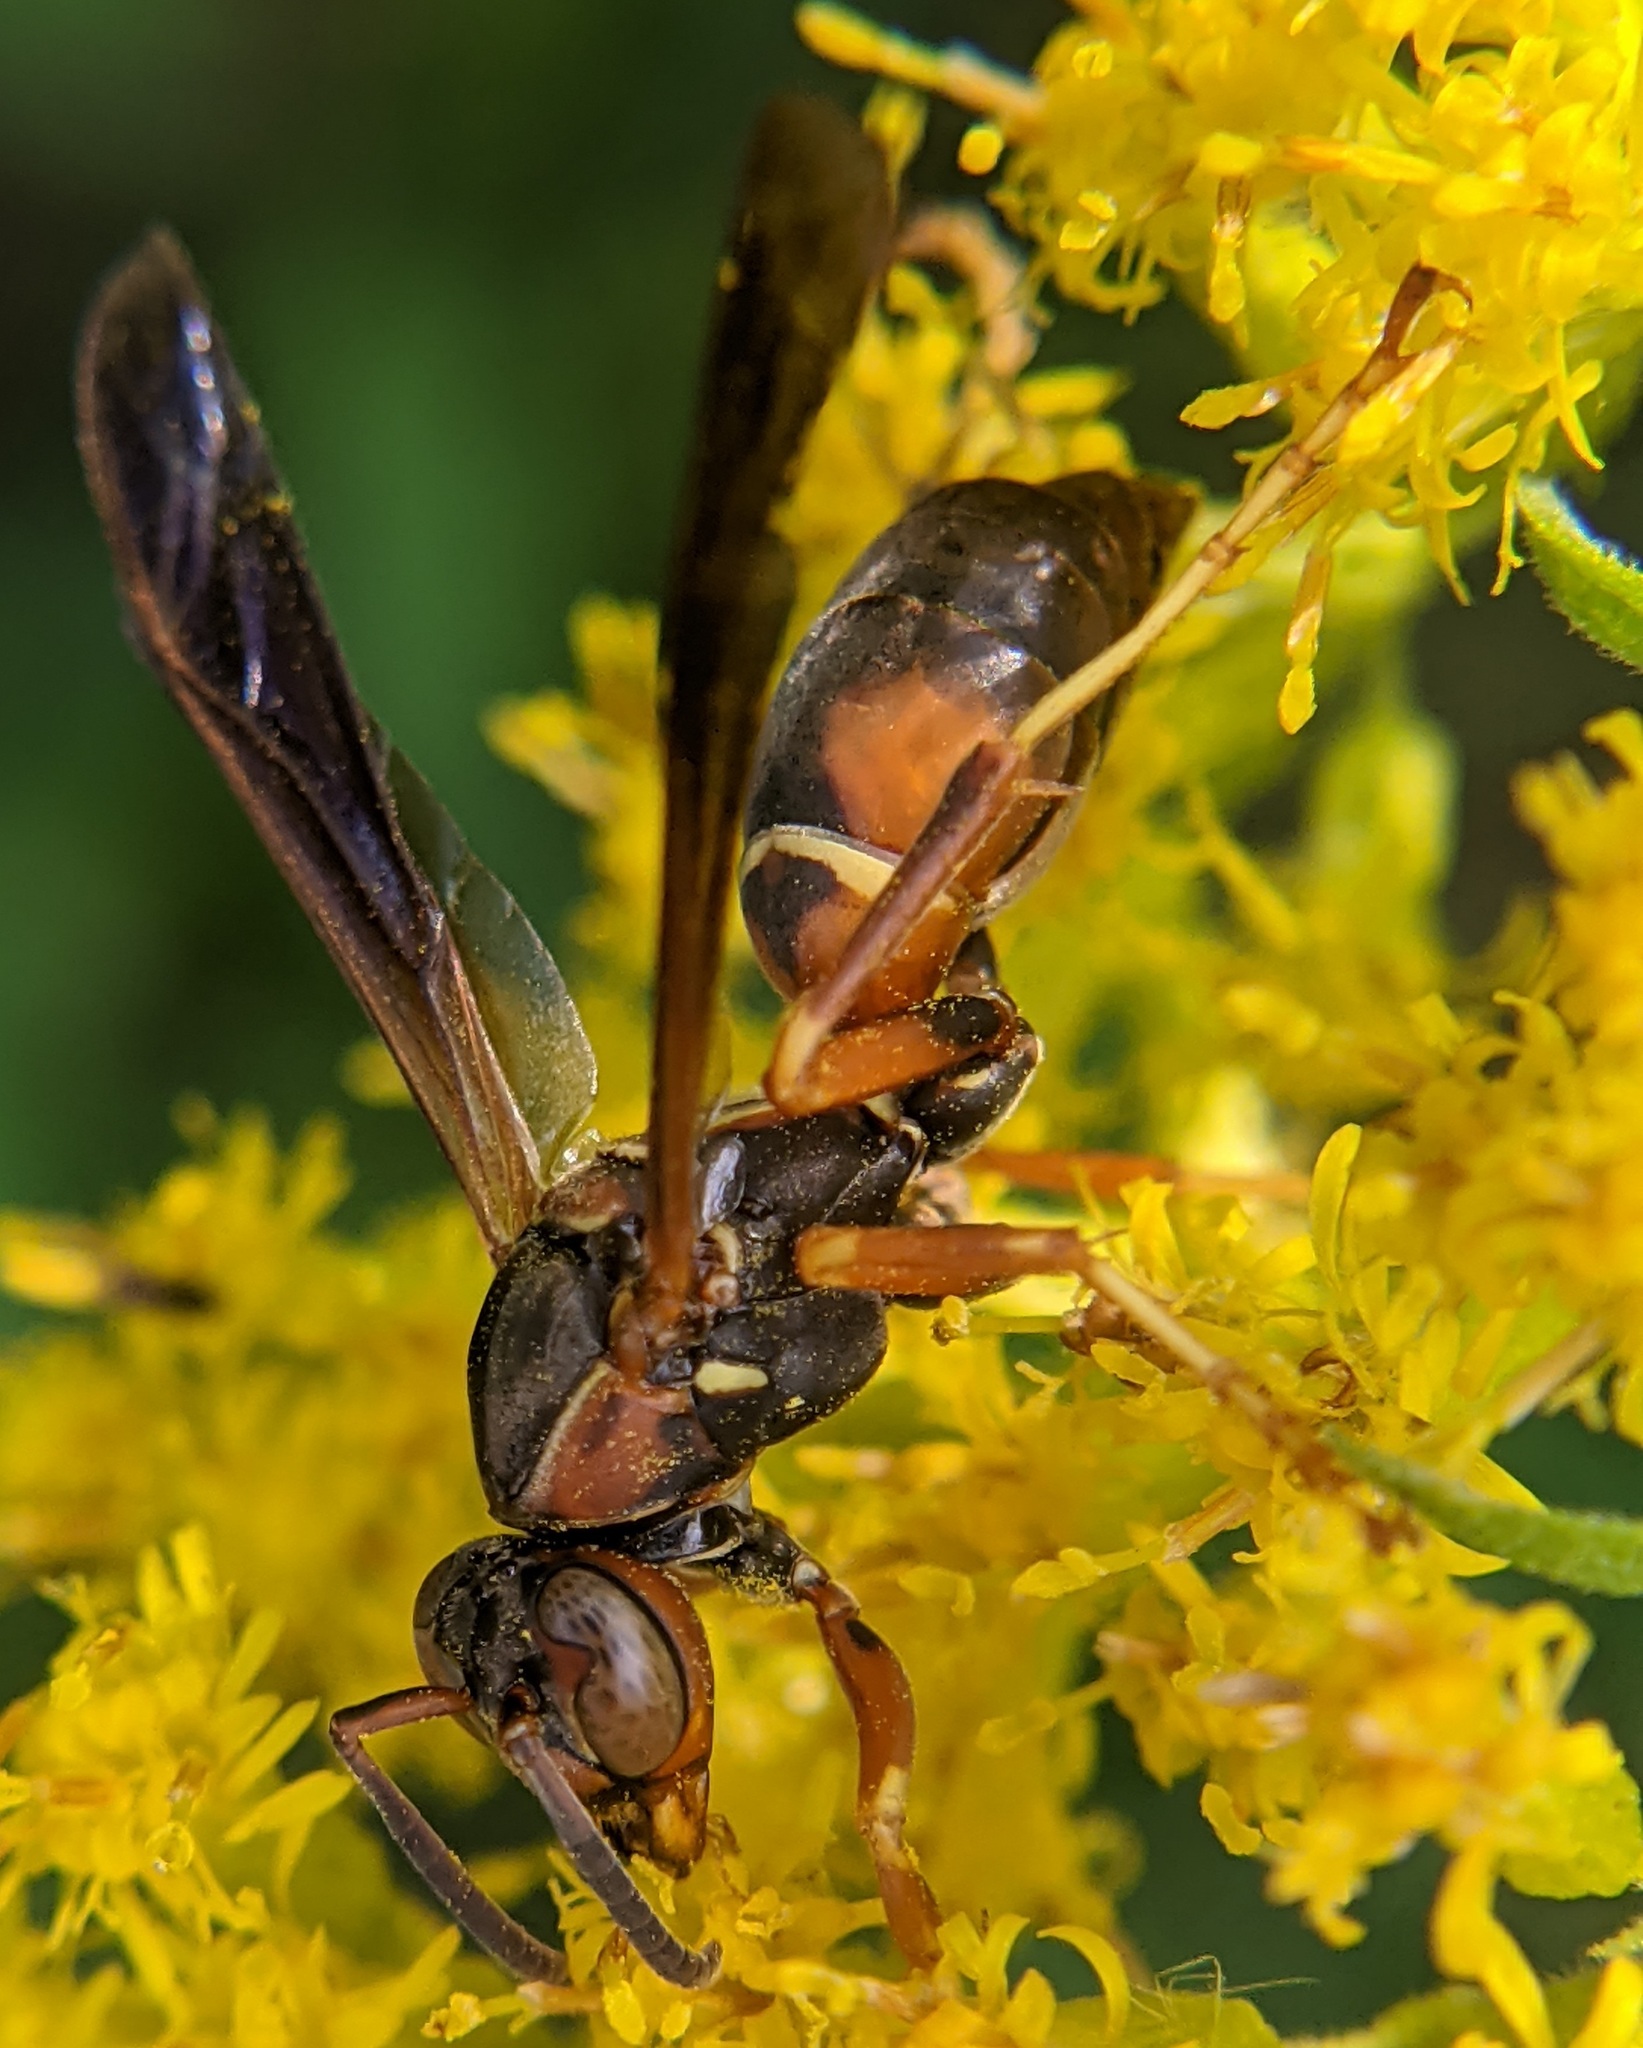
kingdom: Animalia
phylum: Arthropoda
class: Insecta
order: Hymenoptera
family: Eumenidae
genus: Polistes
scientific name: Polistes fuscatus
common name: Dark paper wasp
